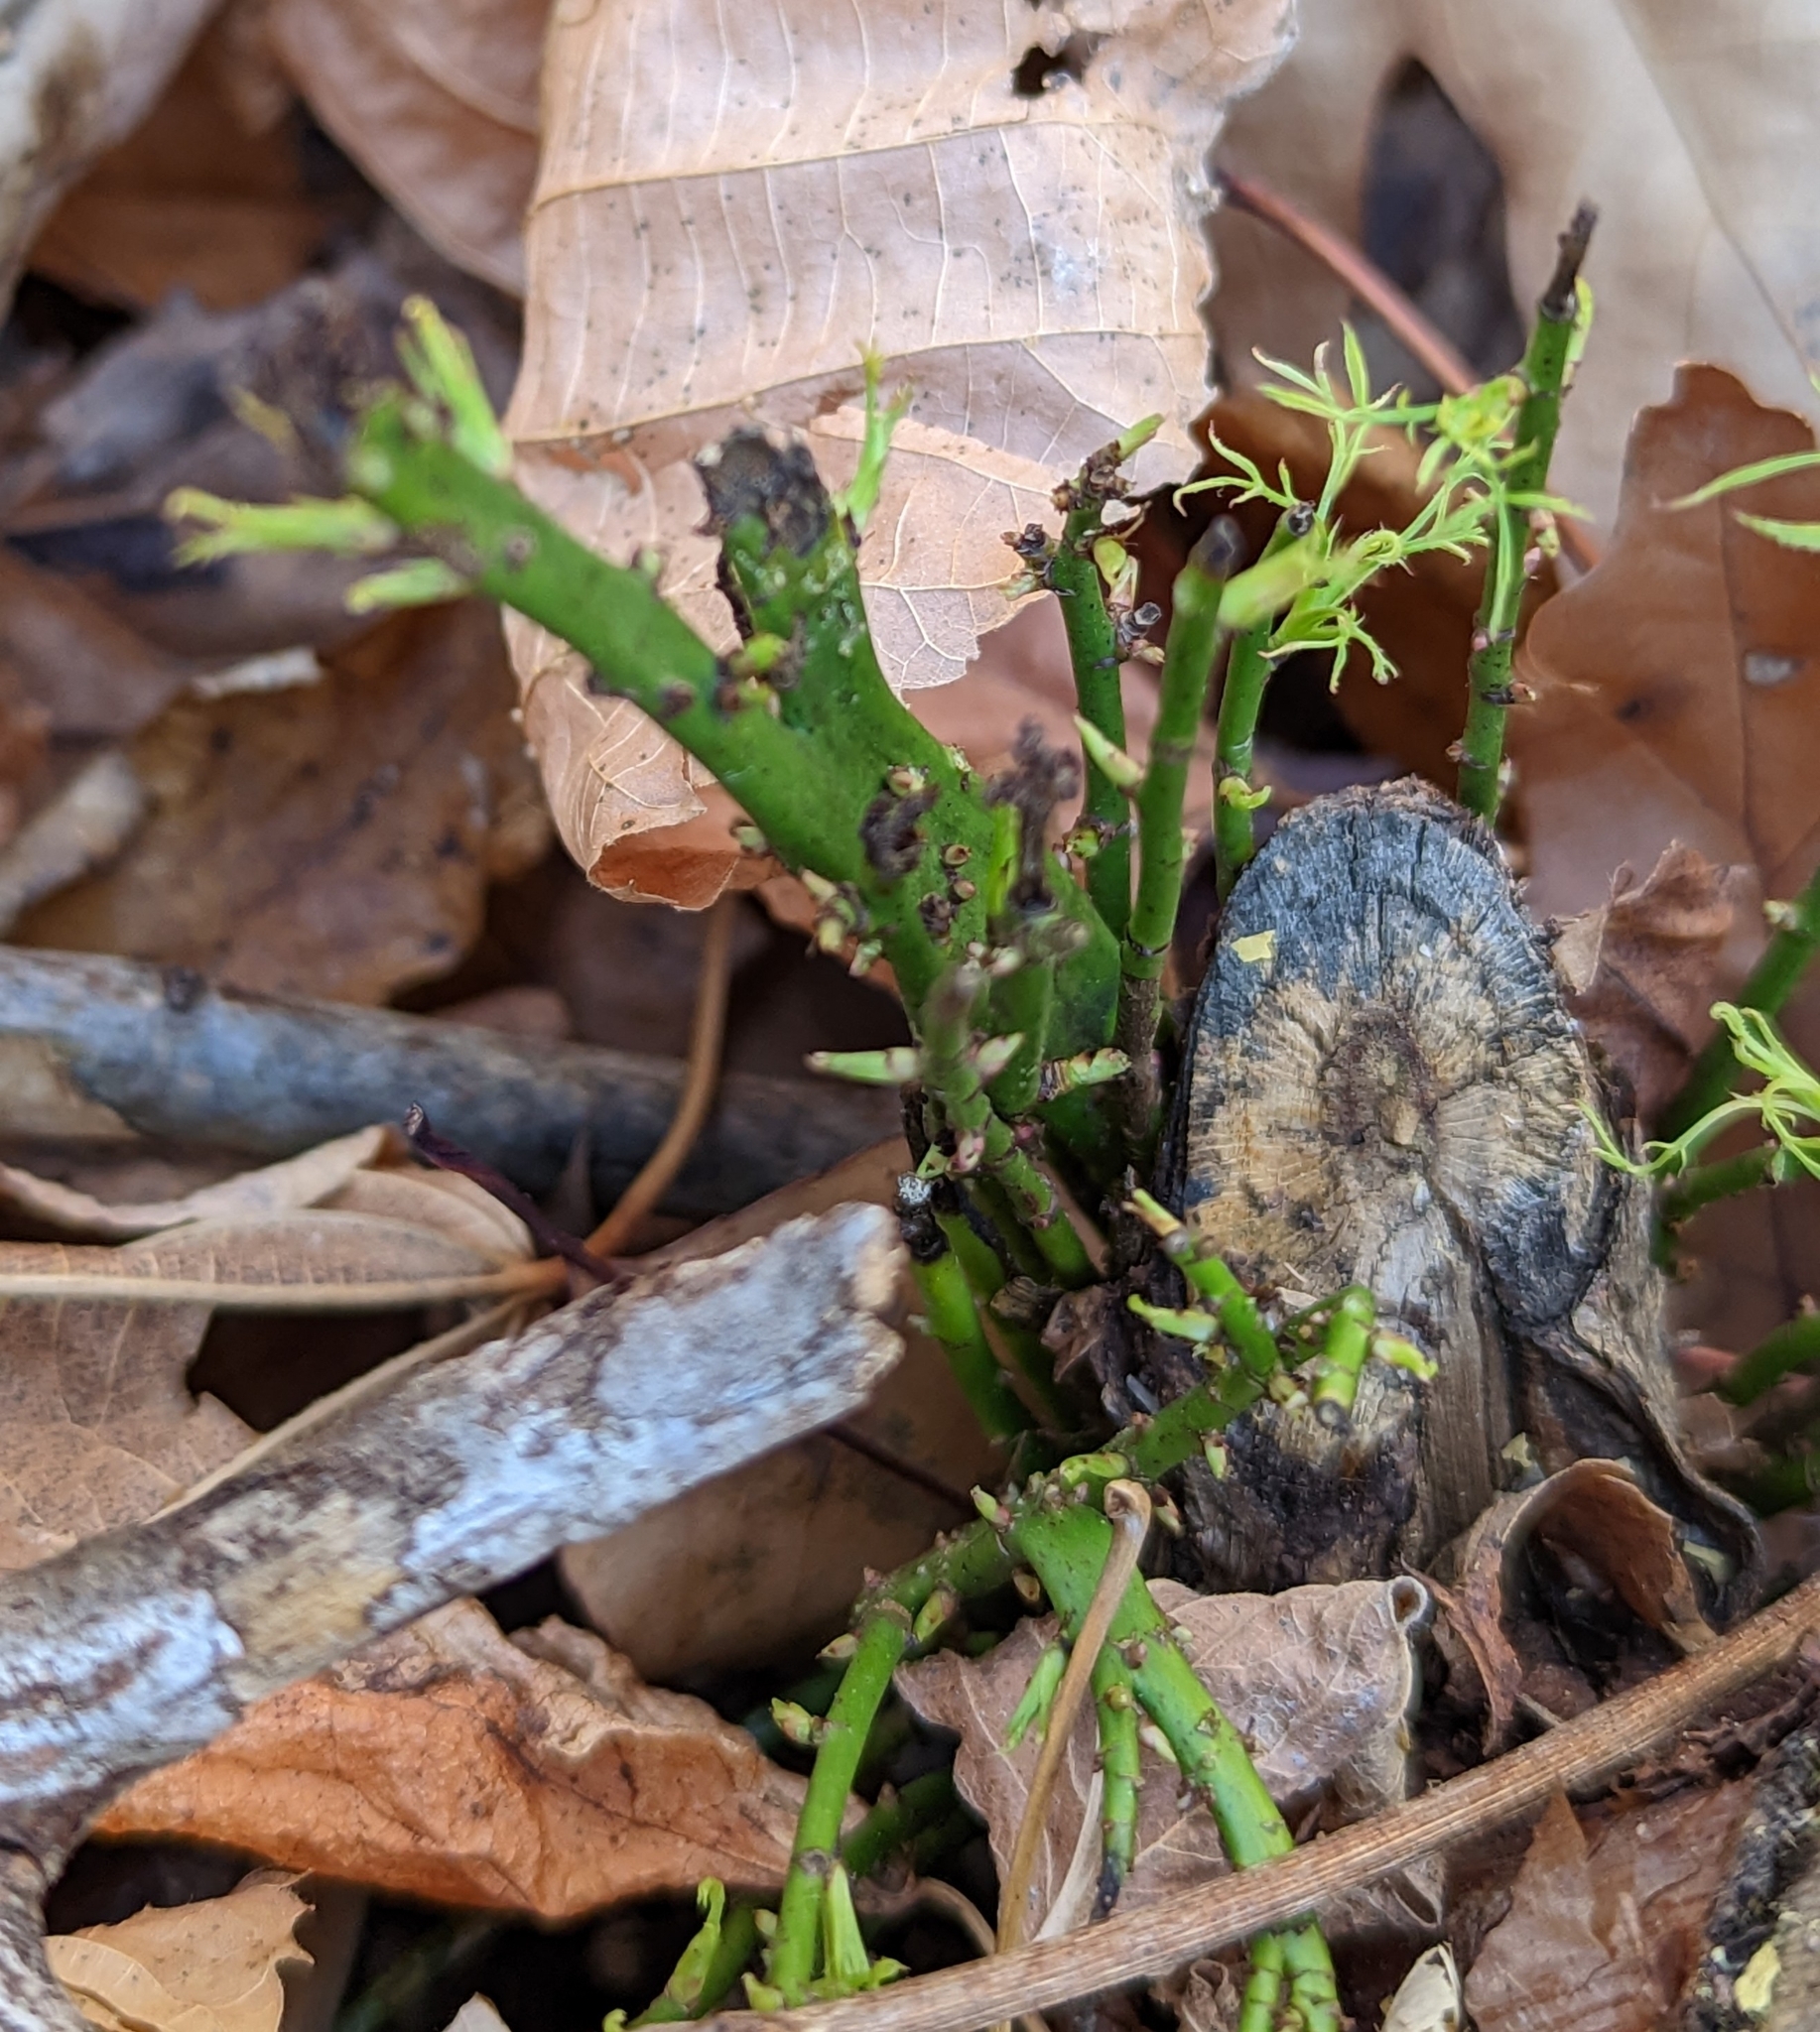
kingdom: Plantae
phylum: Tracheophyta
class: Magnoliopsida
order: Rosales
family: Rosaceae
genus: Rosa
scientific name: Rosa multiflora
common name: Multiflora rose
